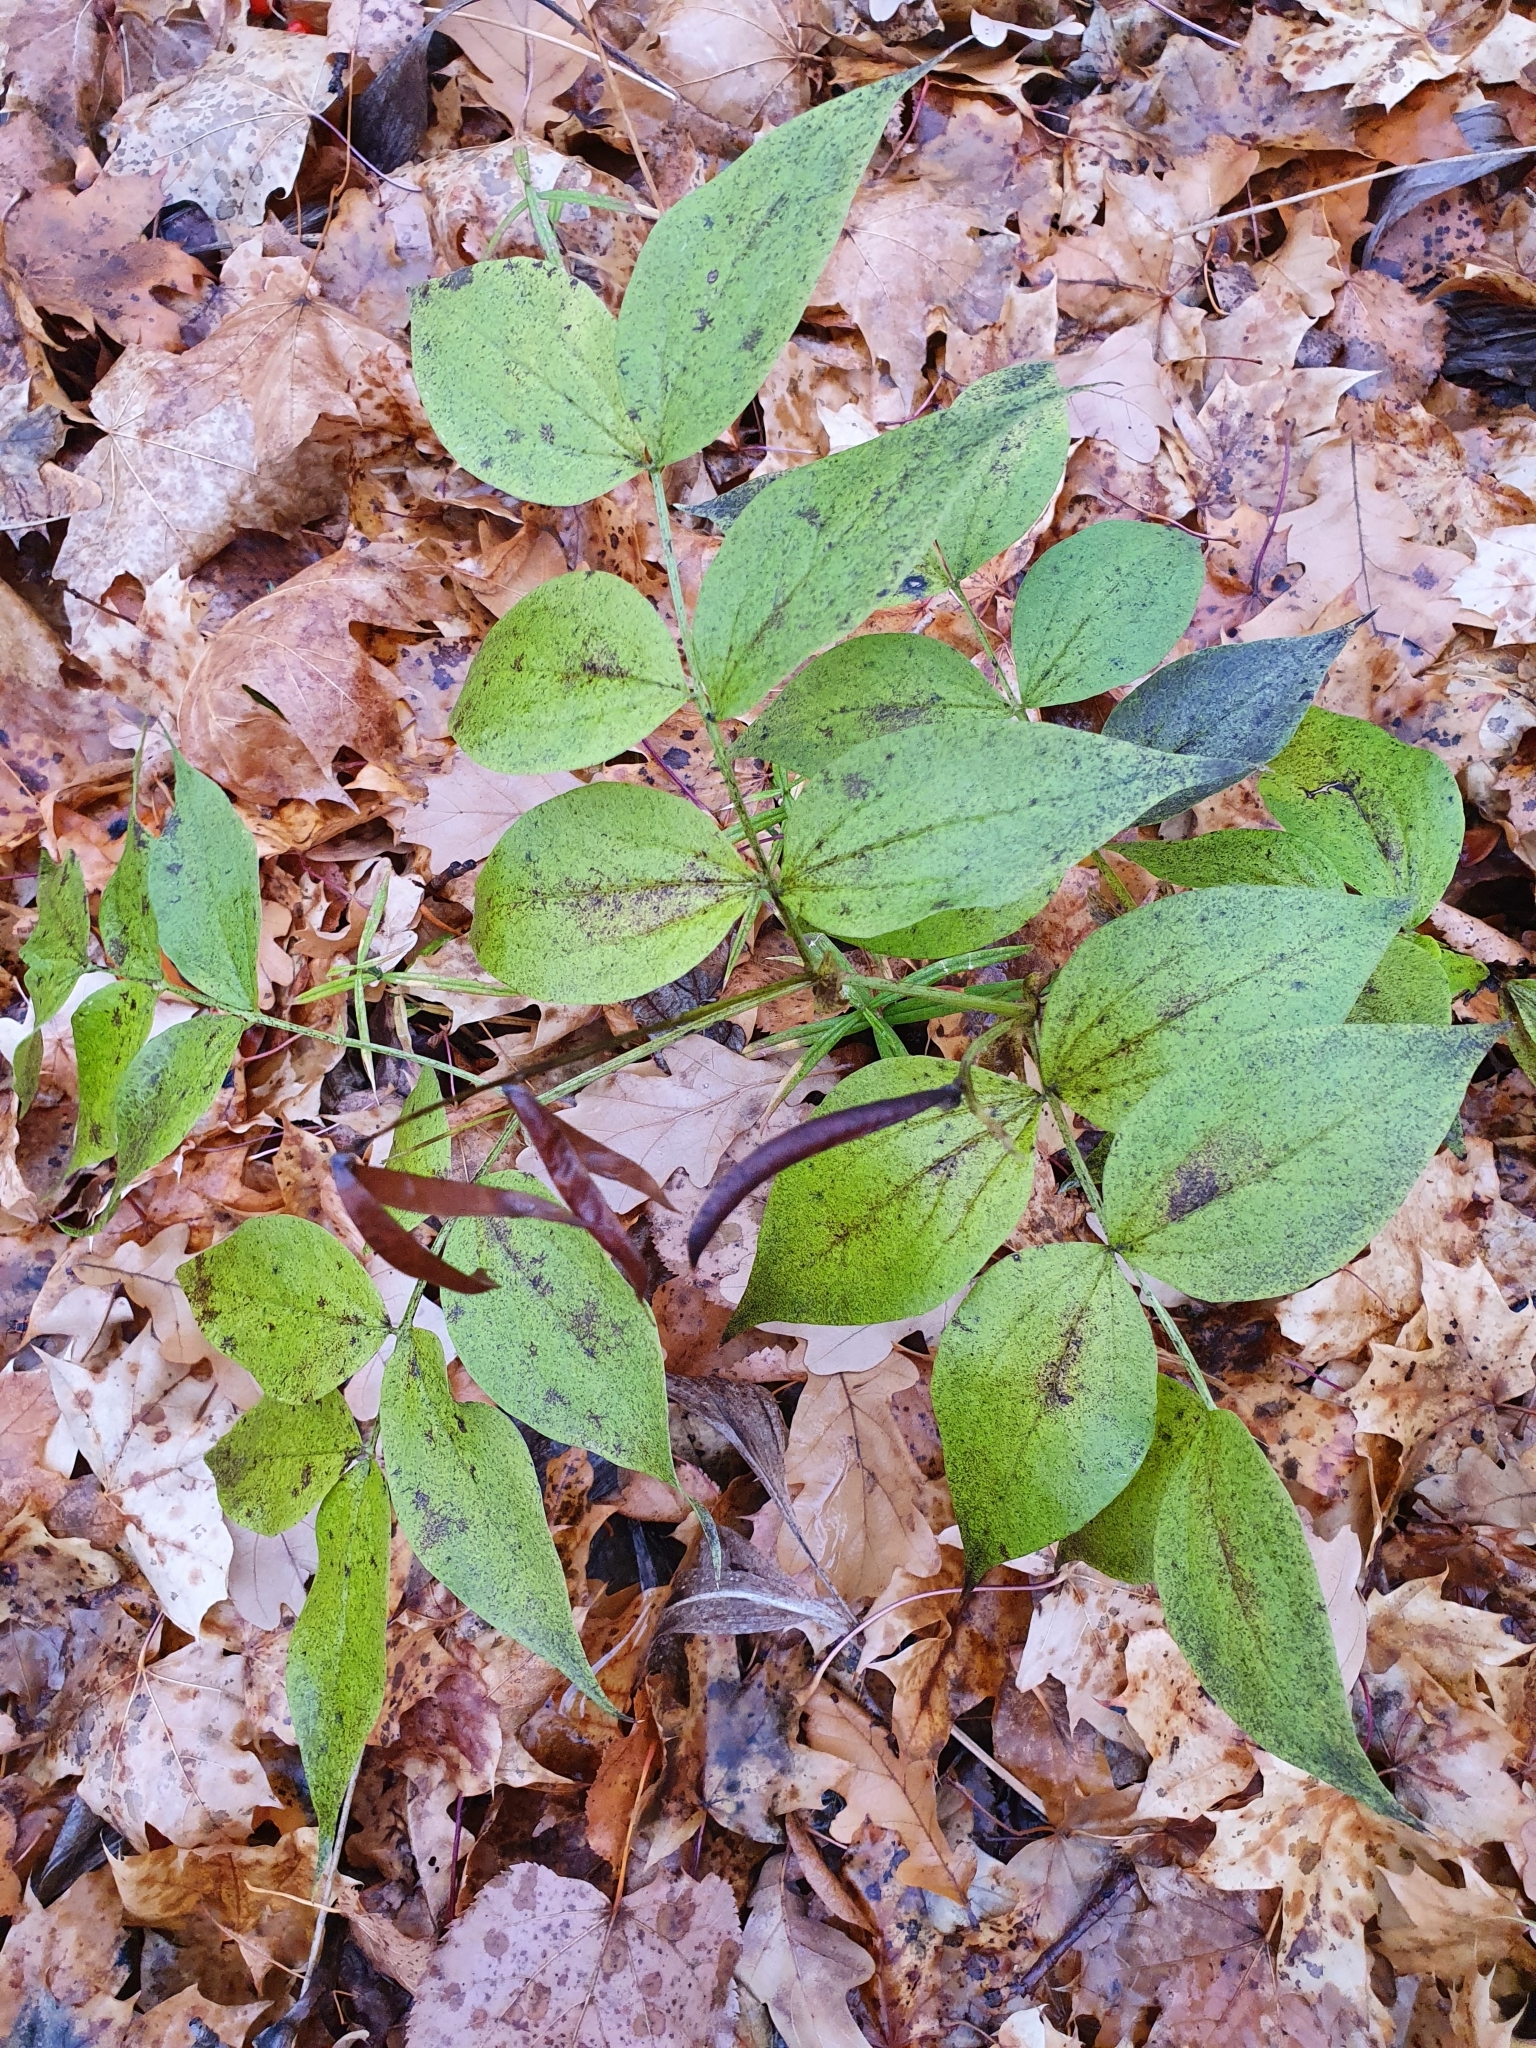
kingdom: Plantae
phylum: Tracheophyta
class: Magnoliopsida
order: Fabales
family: Fabaceae
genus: Lathyrus
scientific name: Lathyrus vernus
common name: Spring pea
